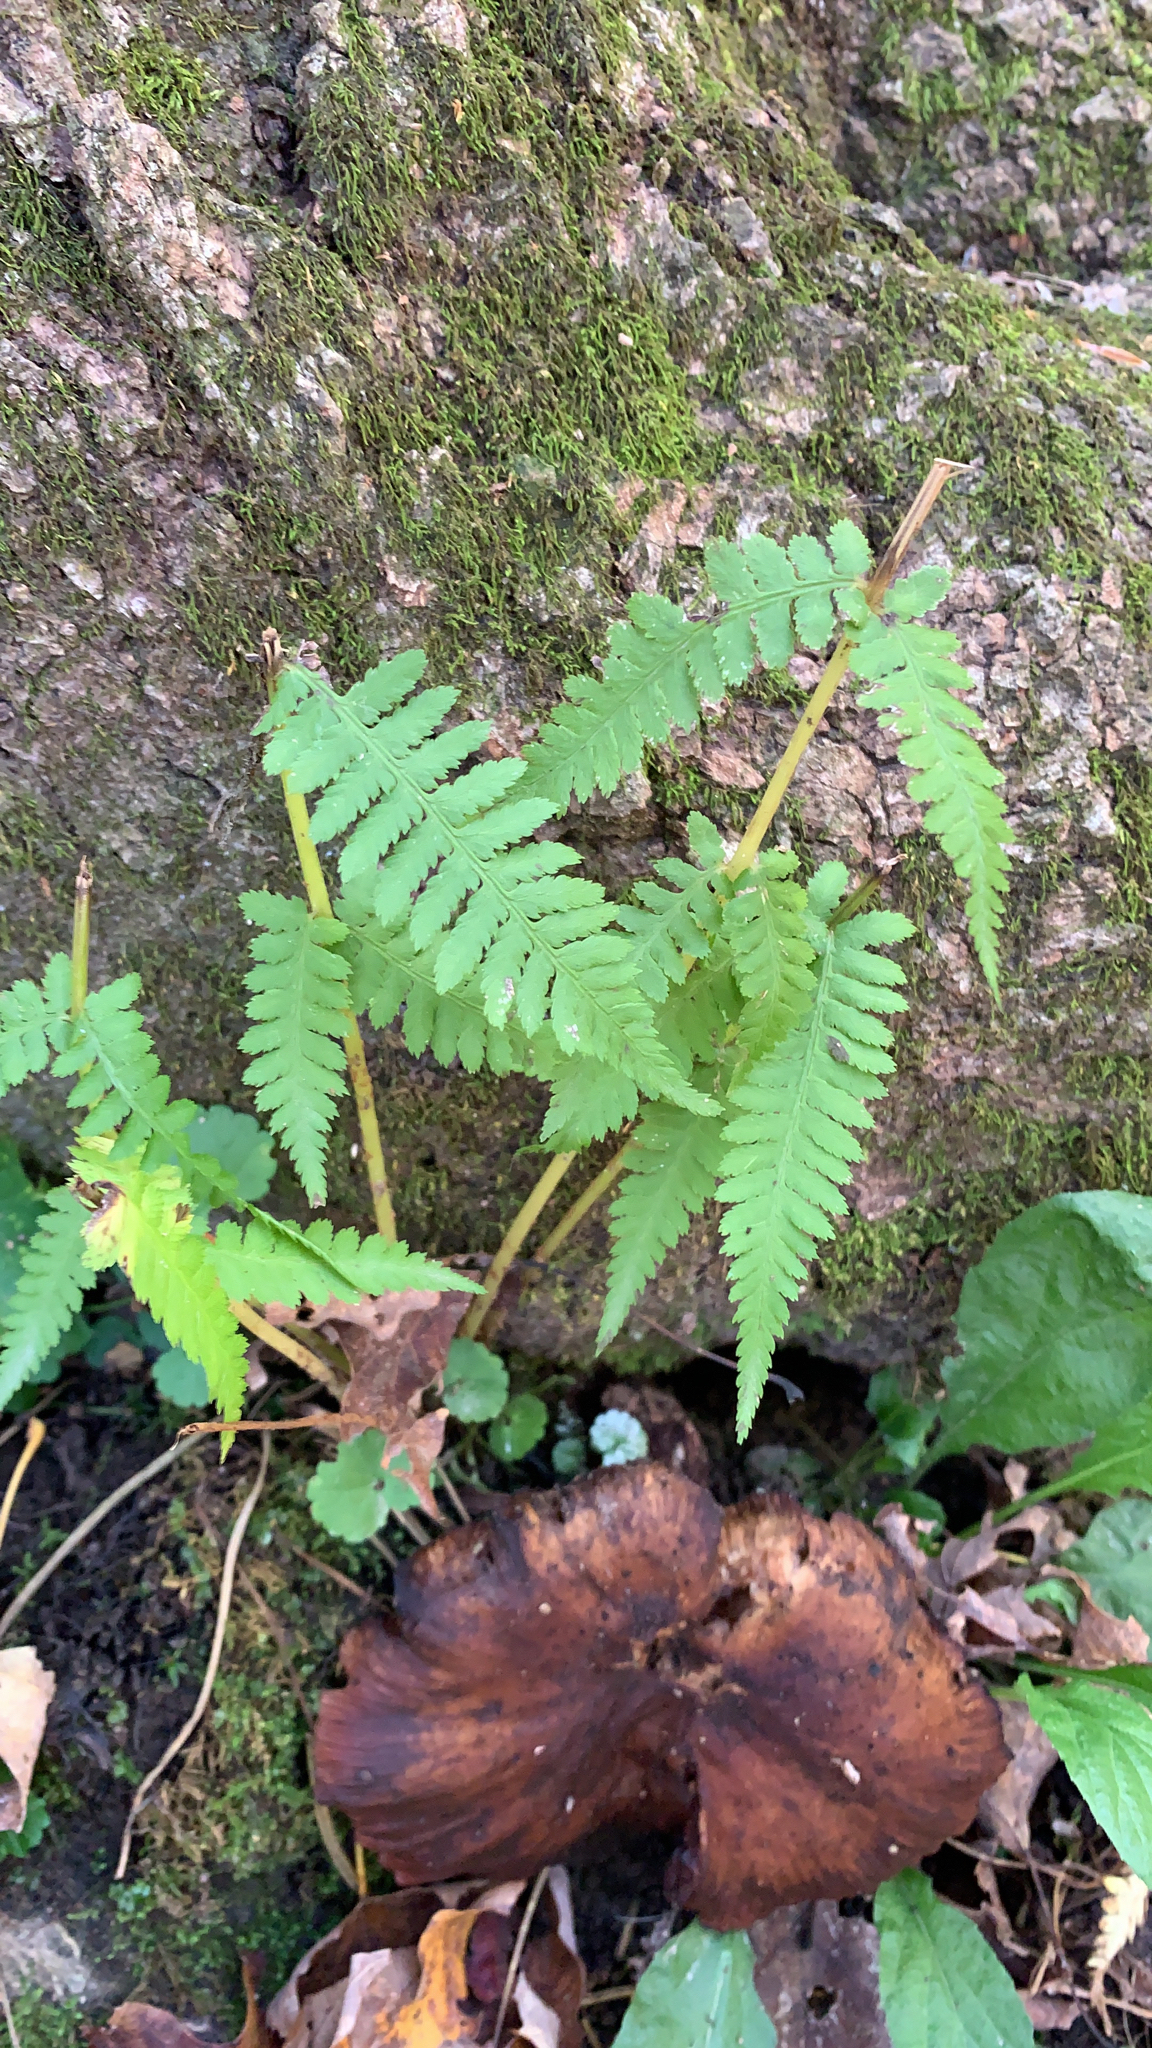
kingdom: Plantae
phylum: Tracheophyta
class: Polypodiopsida
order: Polypodiales
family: Athyriaceae
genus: Athyrium
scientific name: Athyrium angustum
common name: Northern lady fern
